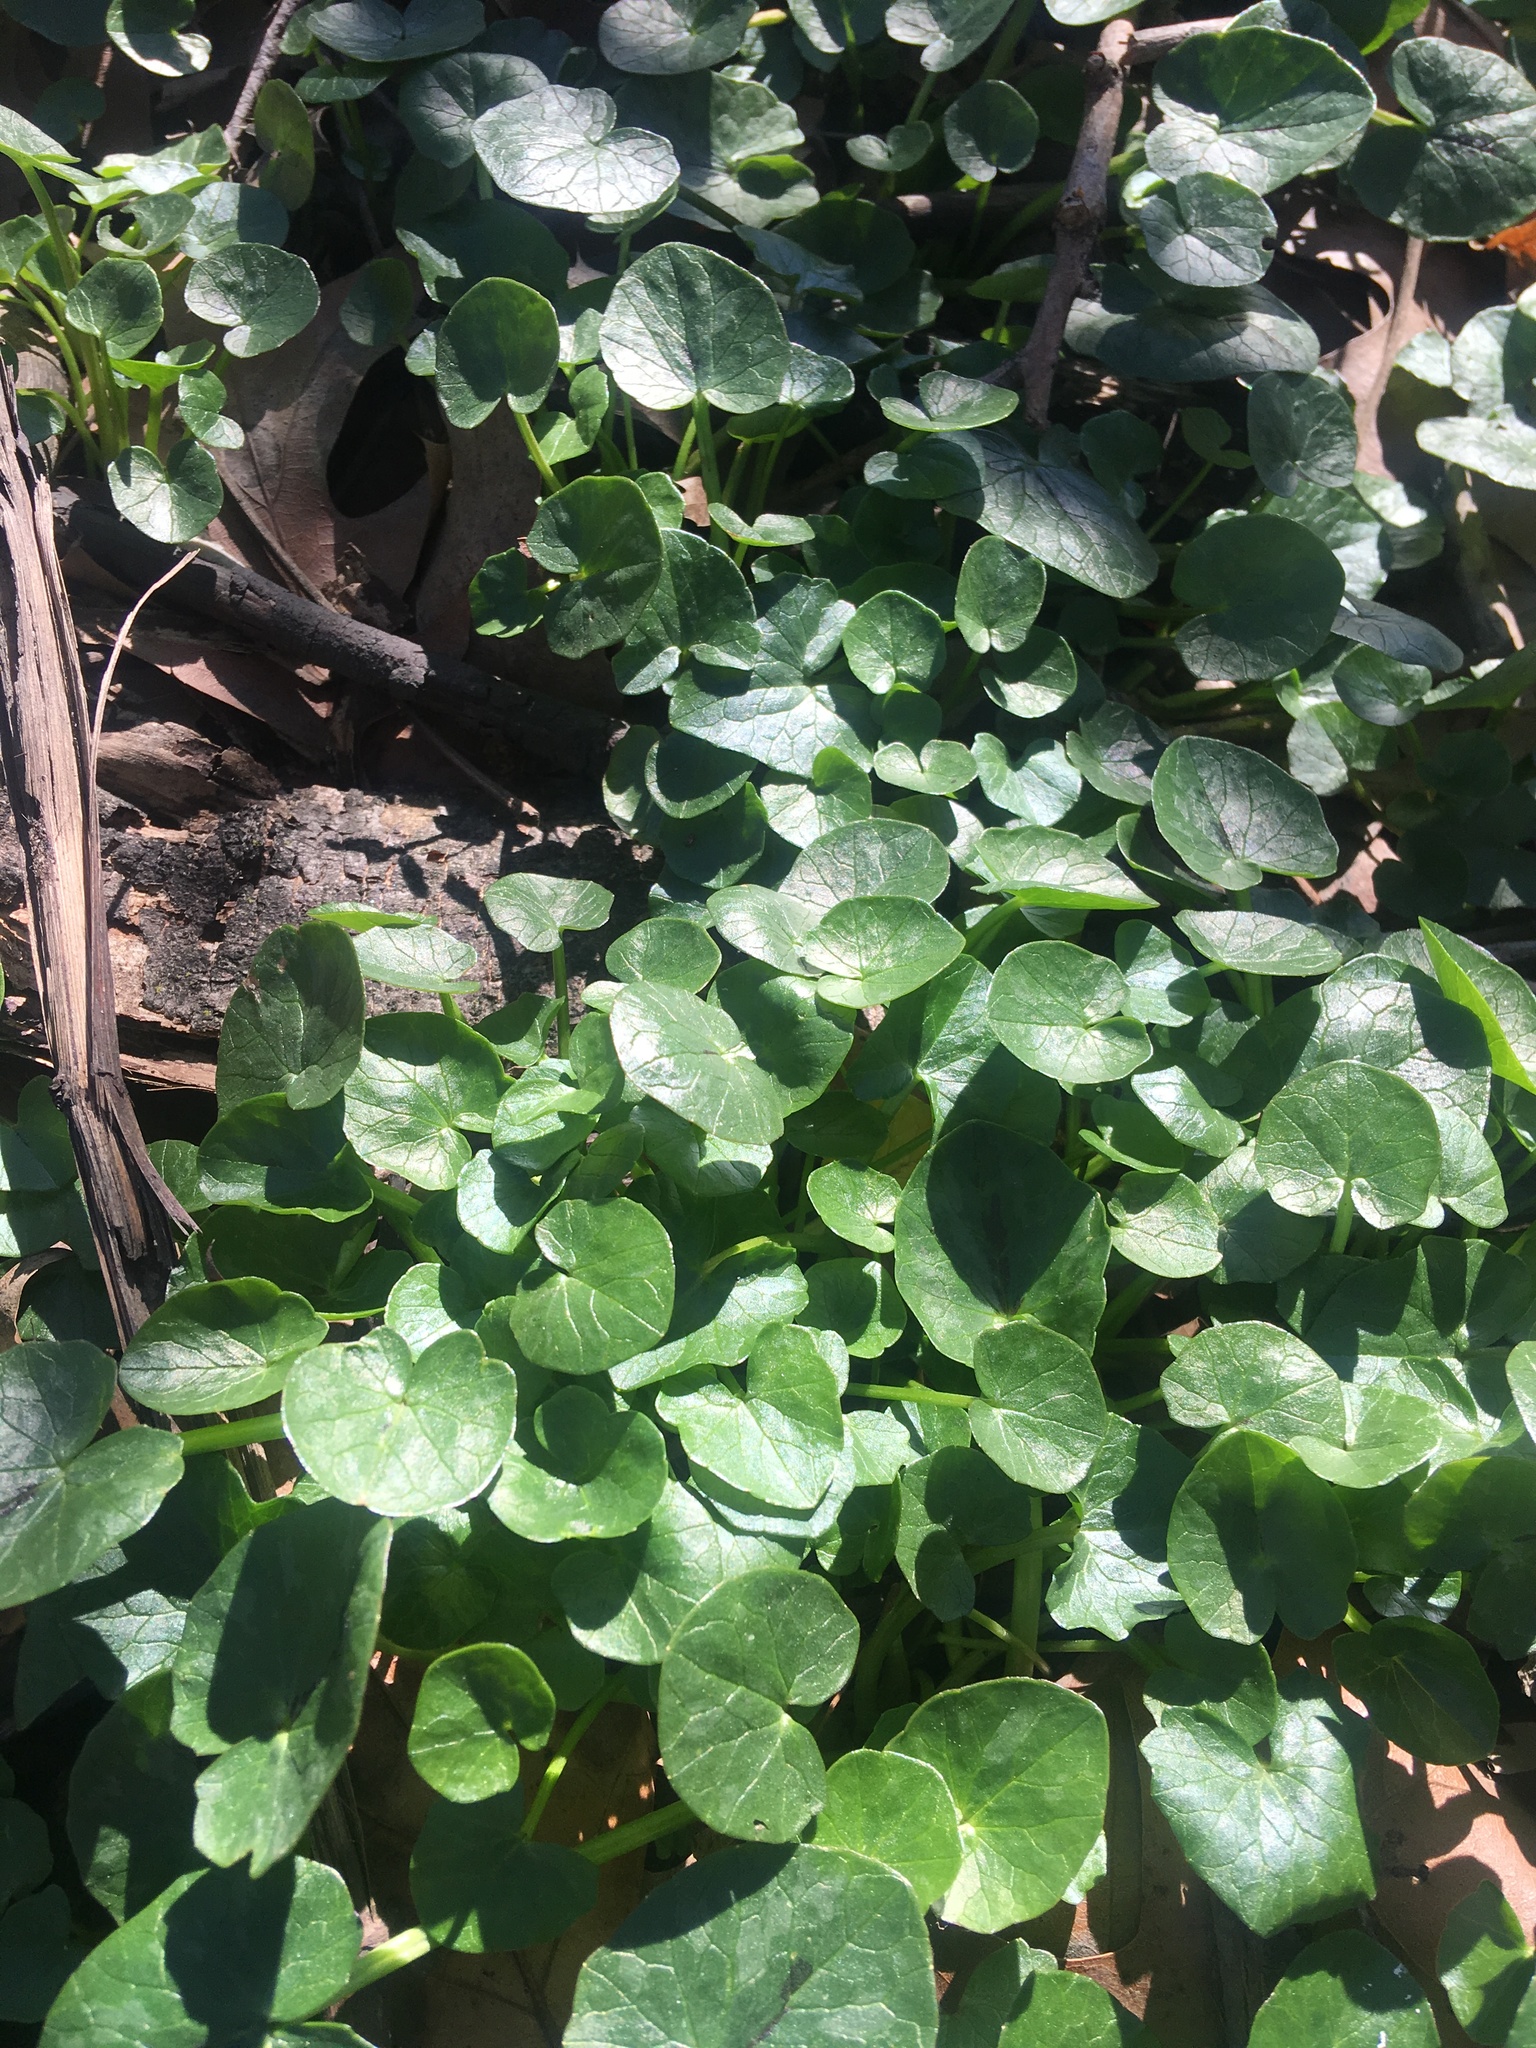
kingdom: Plantae
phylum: Tracheophyta
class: Magnoliopsida
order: Ranunculales
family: Ranunculaceae
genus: Ficaria
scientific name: Ficaria verna
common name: Lesser celandine
